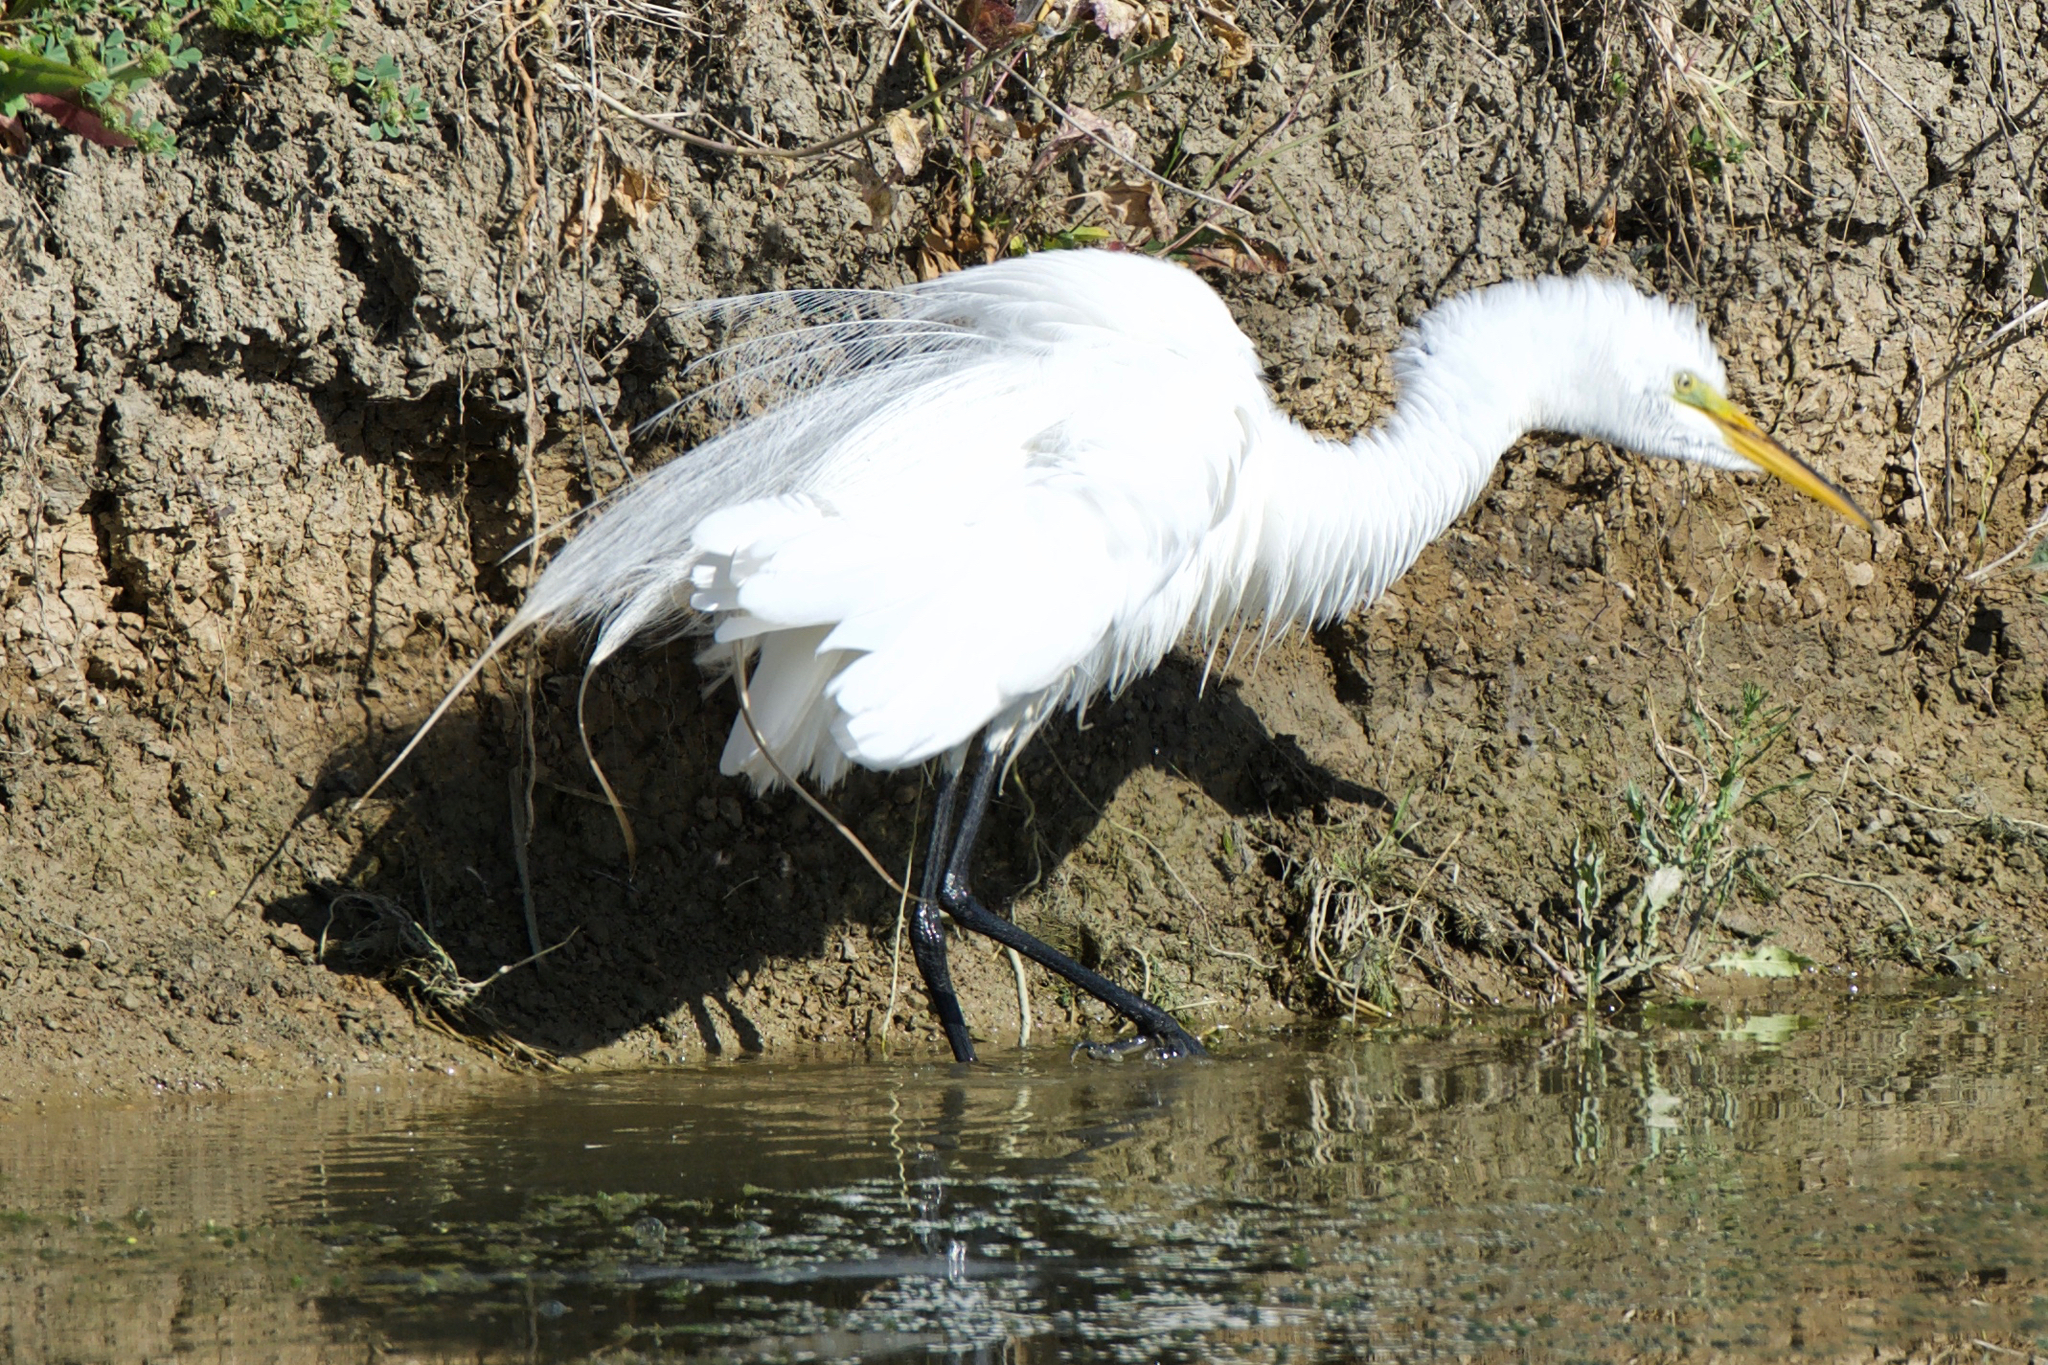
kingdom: Animalia
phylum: Chordata
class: Aves
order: Pelecaniformes
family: Ardeidae
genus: Ardea
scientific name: Ardea alba
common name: Great egret
